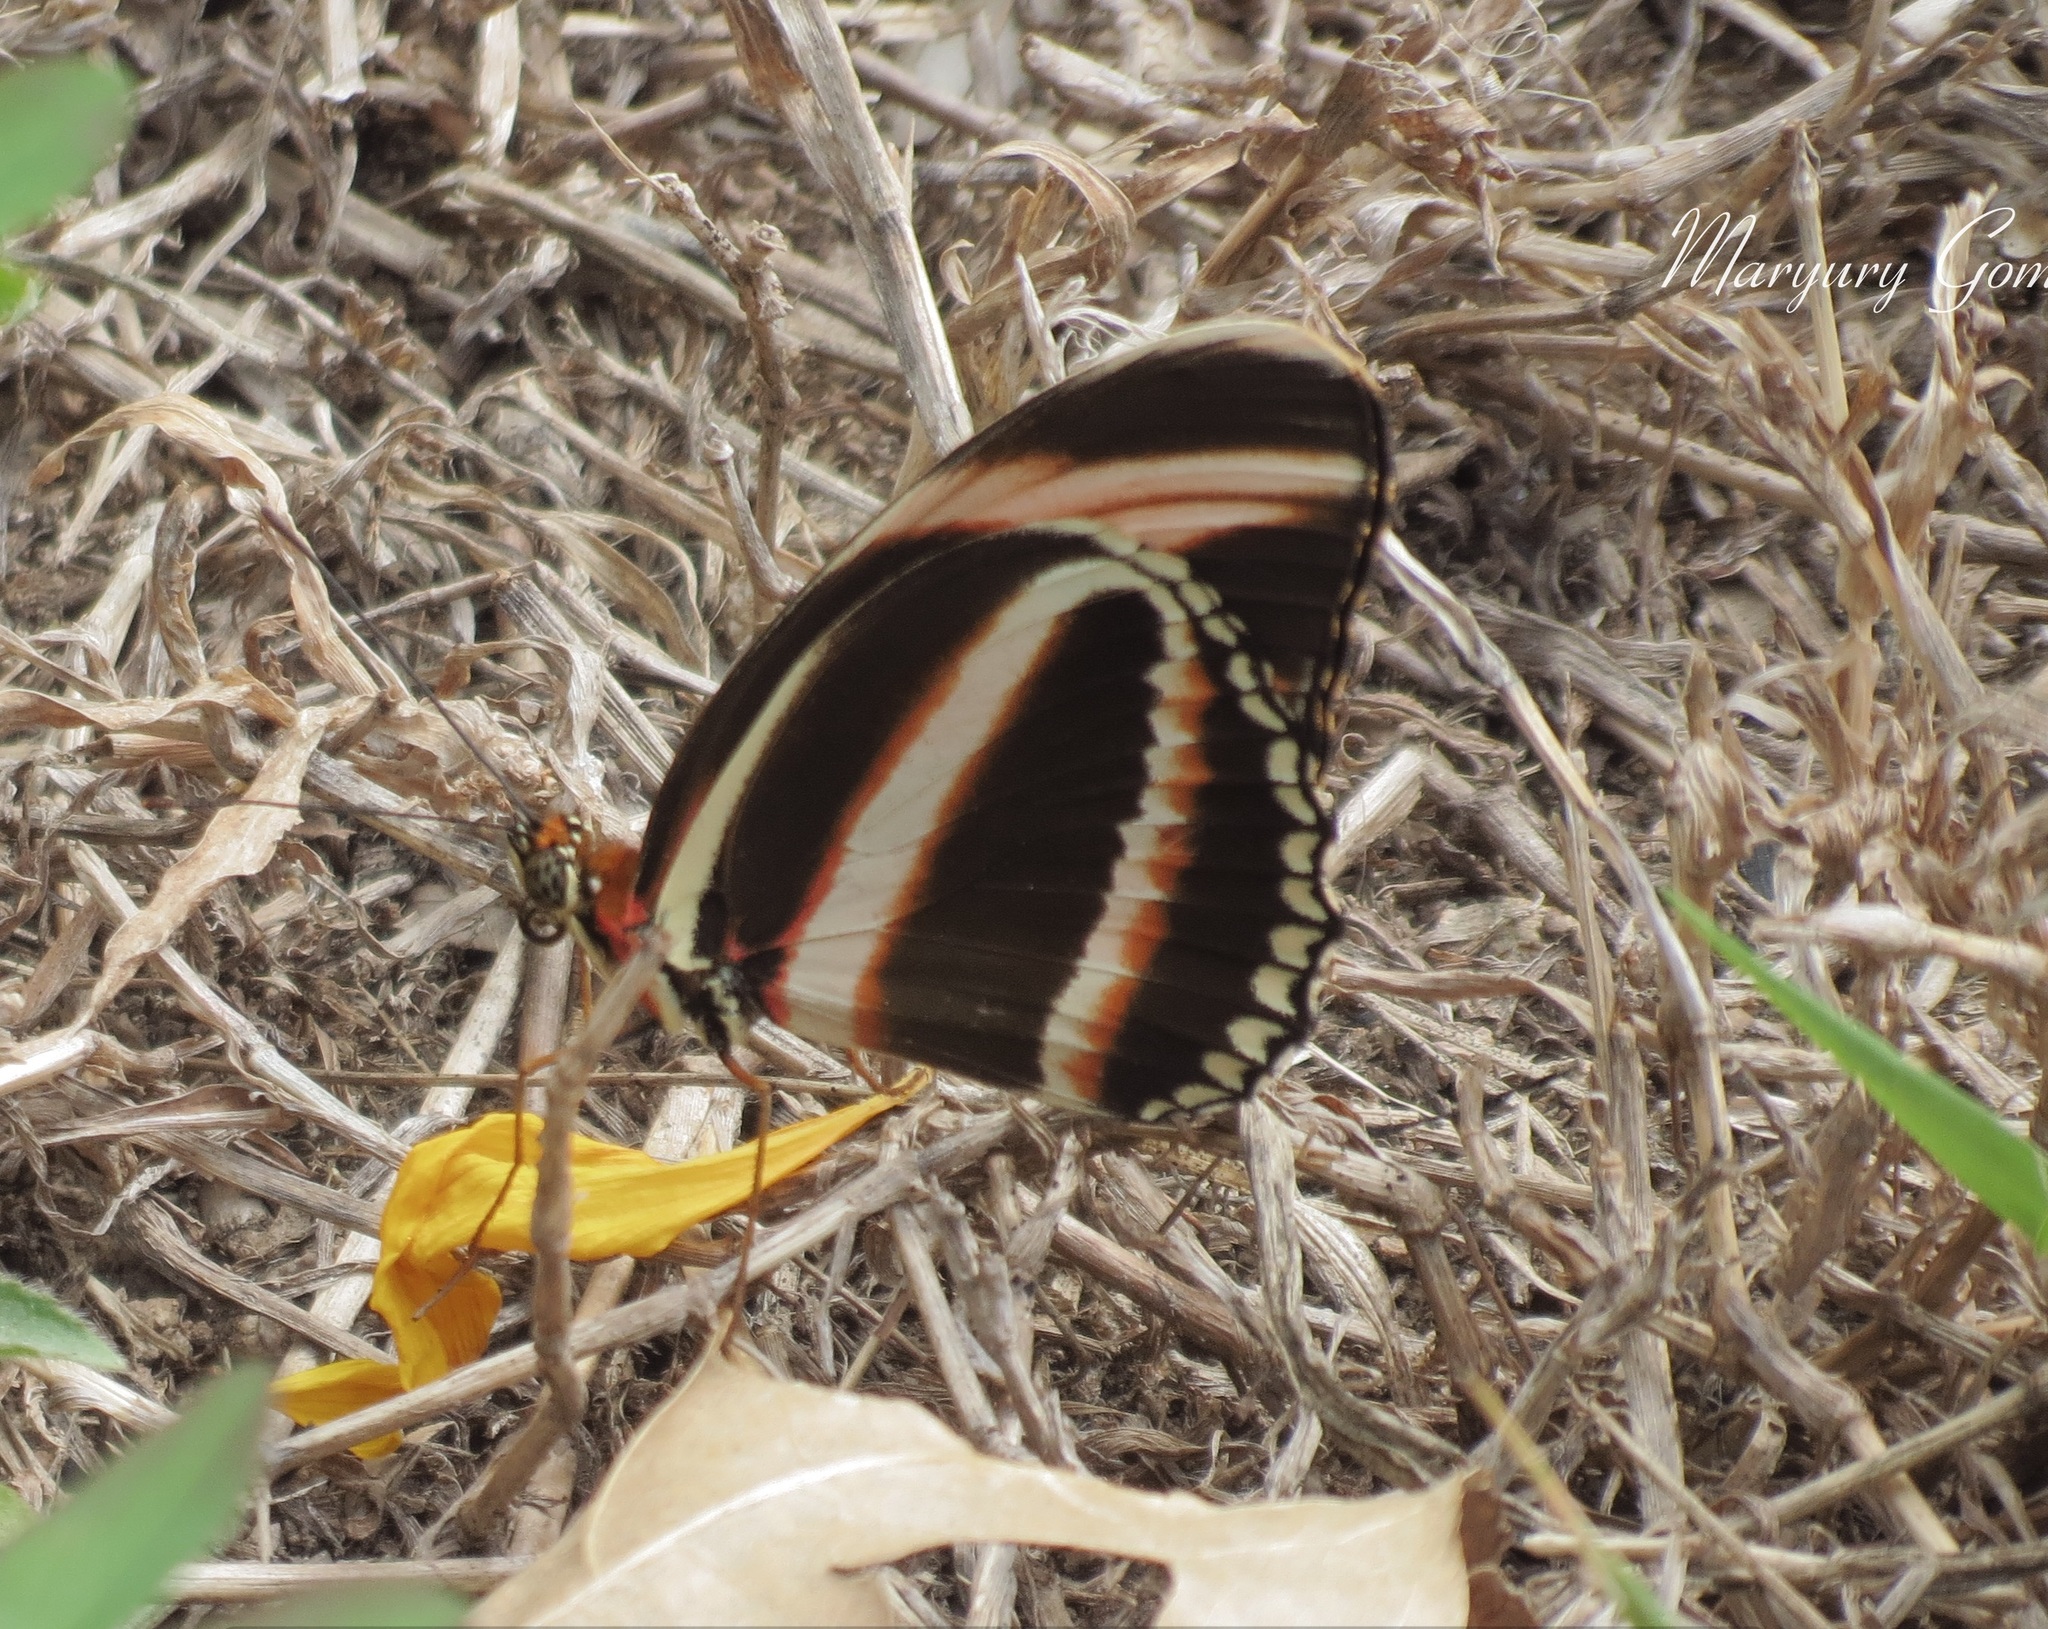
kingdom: Animalia
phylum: Arthropoda
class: Insecta
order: Lepidoptera
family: Nymphalidae
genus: Dryadula
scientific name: Dryadula phaetusa
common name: Banded orange heliconian
